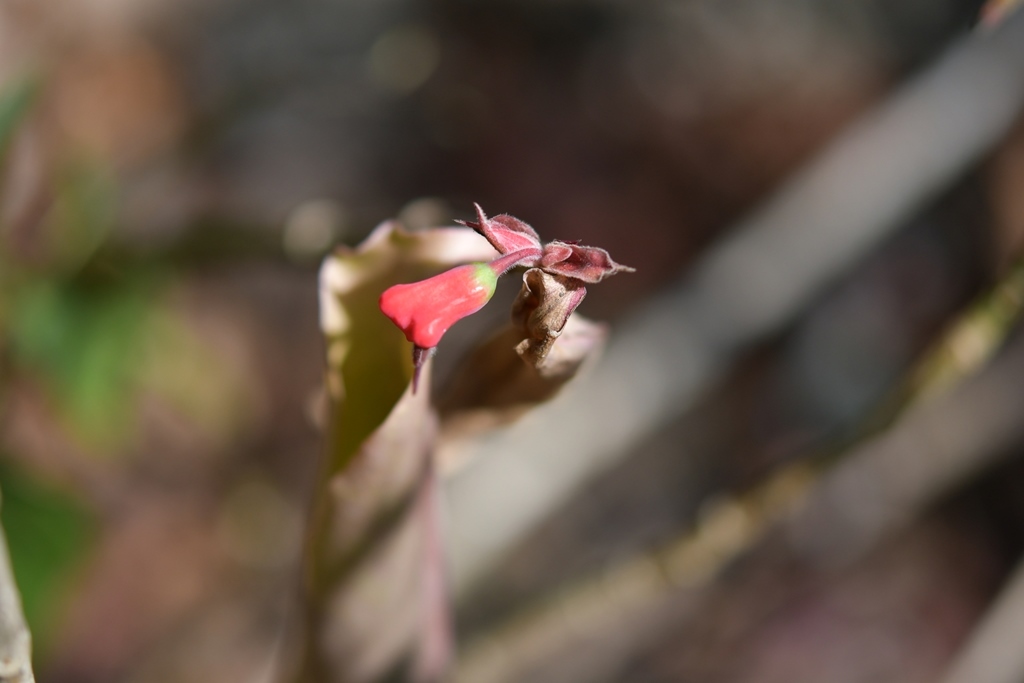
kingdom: Plantae
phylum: Tracheophyta
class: Magnoliopsida
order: Malpighiales
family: Euphorbiaceae
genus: Euphorbia
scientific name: Euphorbia calcarata
